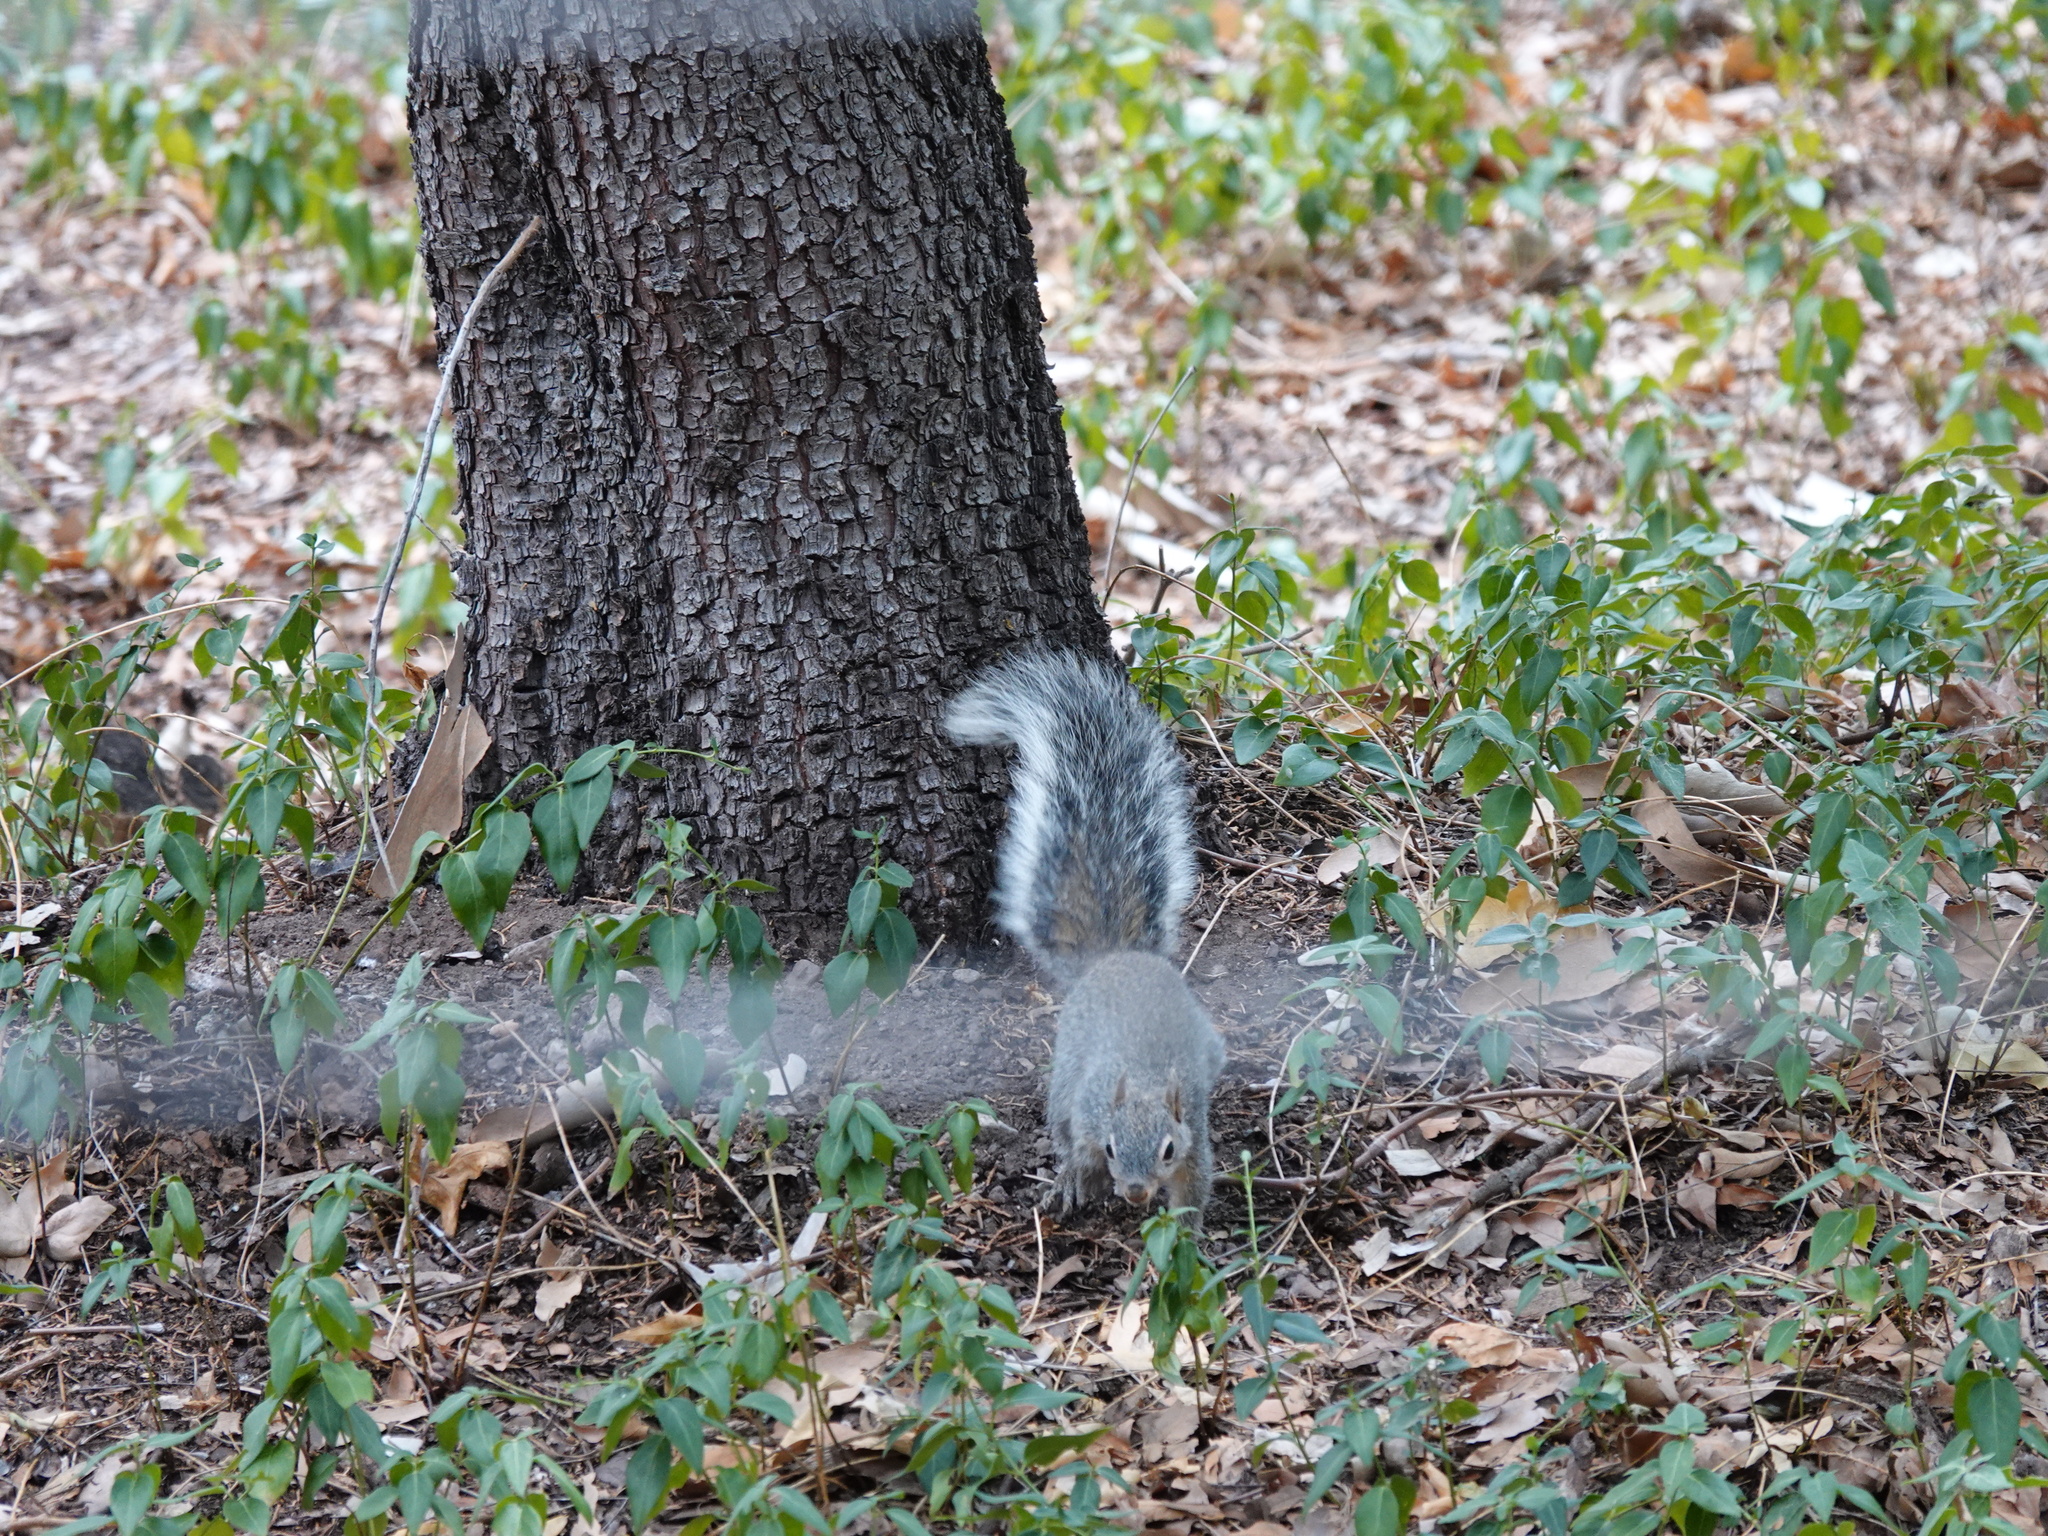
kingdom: Animalia
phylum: Chordata
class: Mammalia
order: Rodentia
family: Sciuridae
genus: Sciurus
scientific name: Sciurus arizonensis
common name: Arizona gray squirrel
